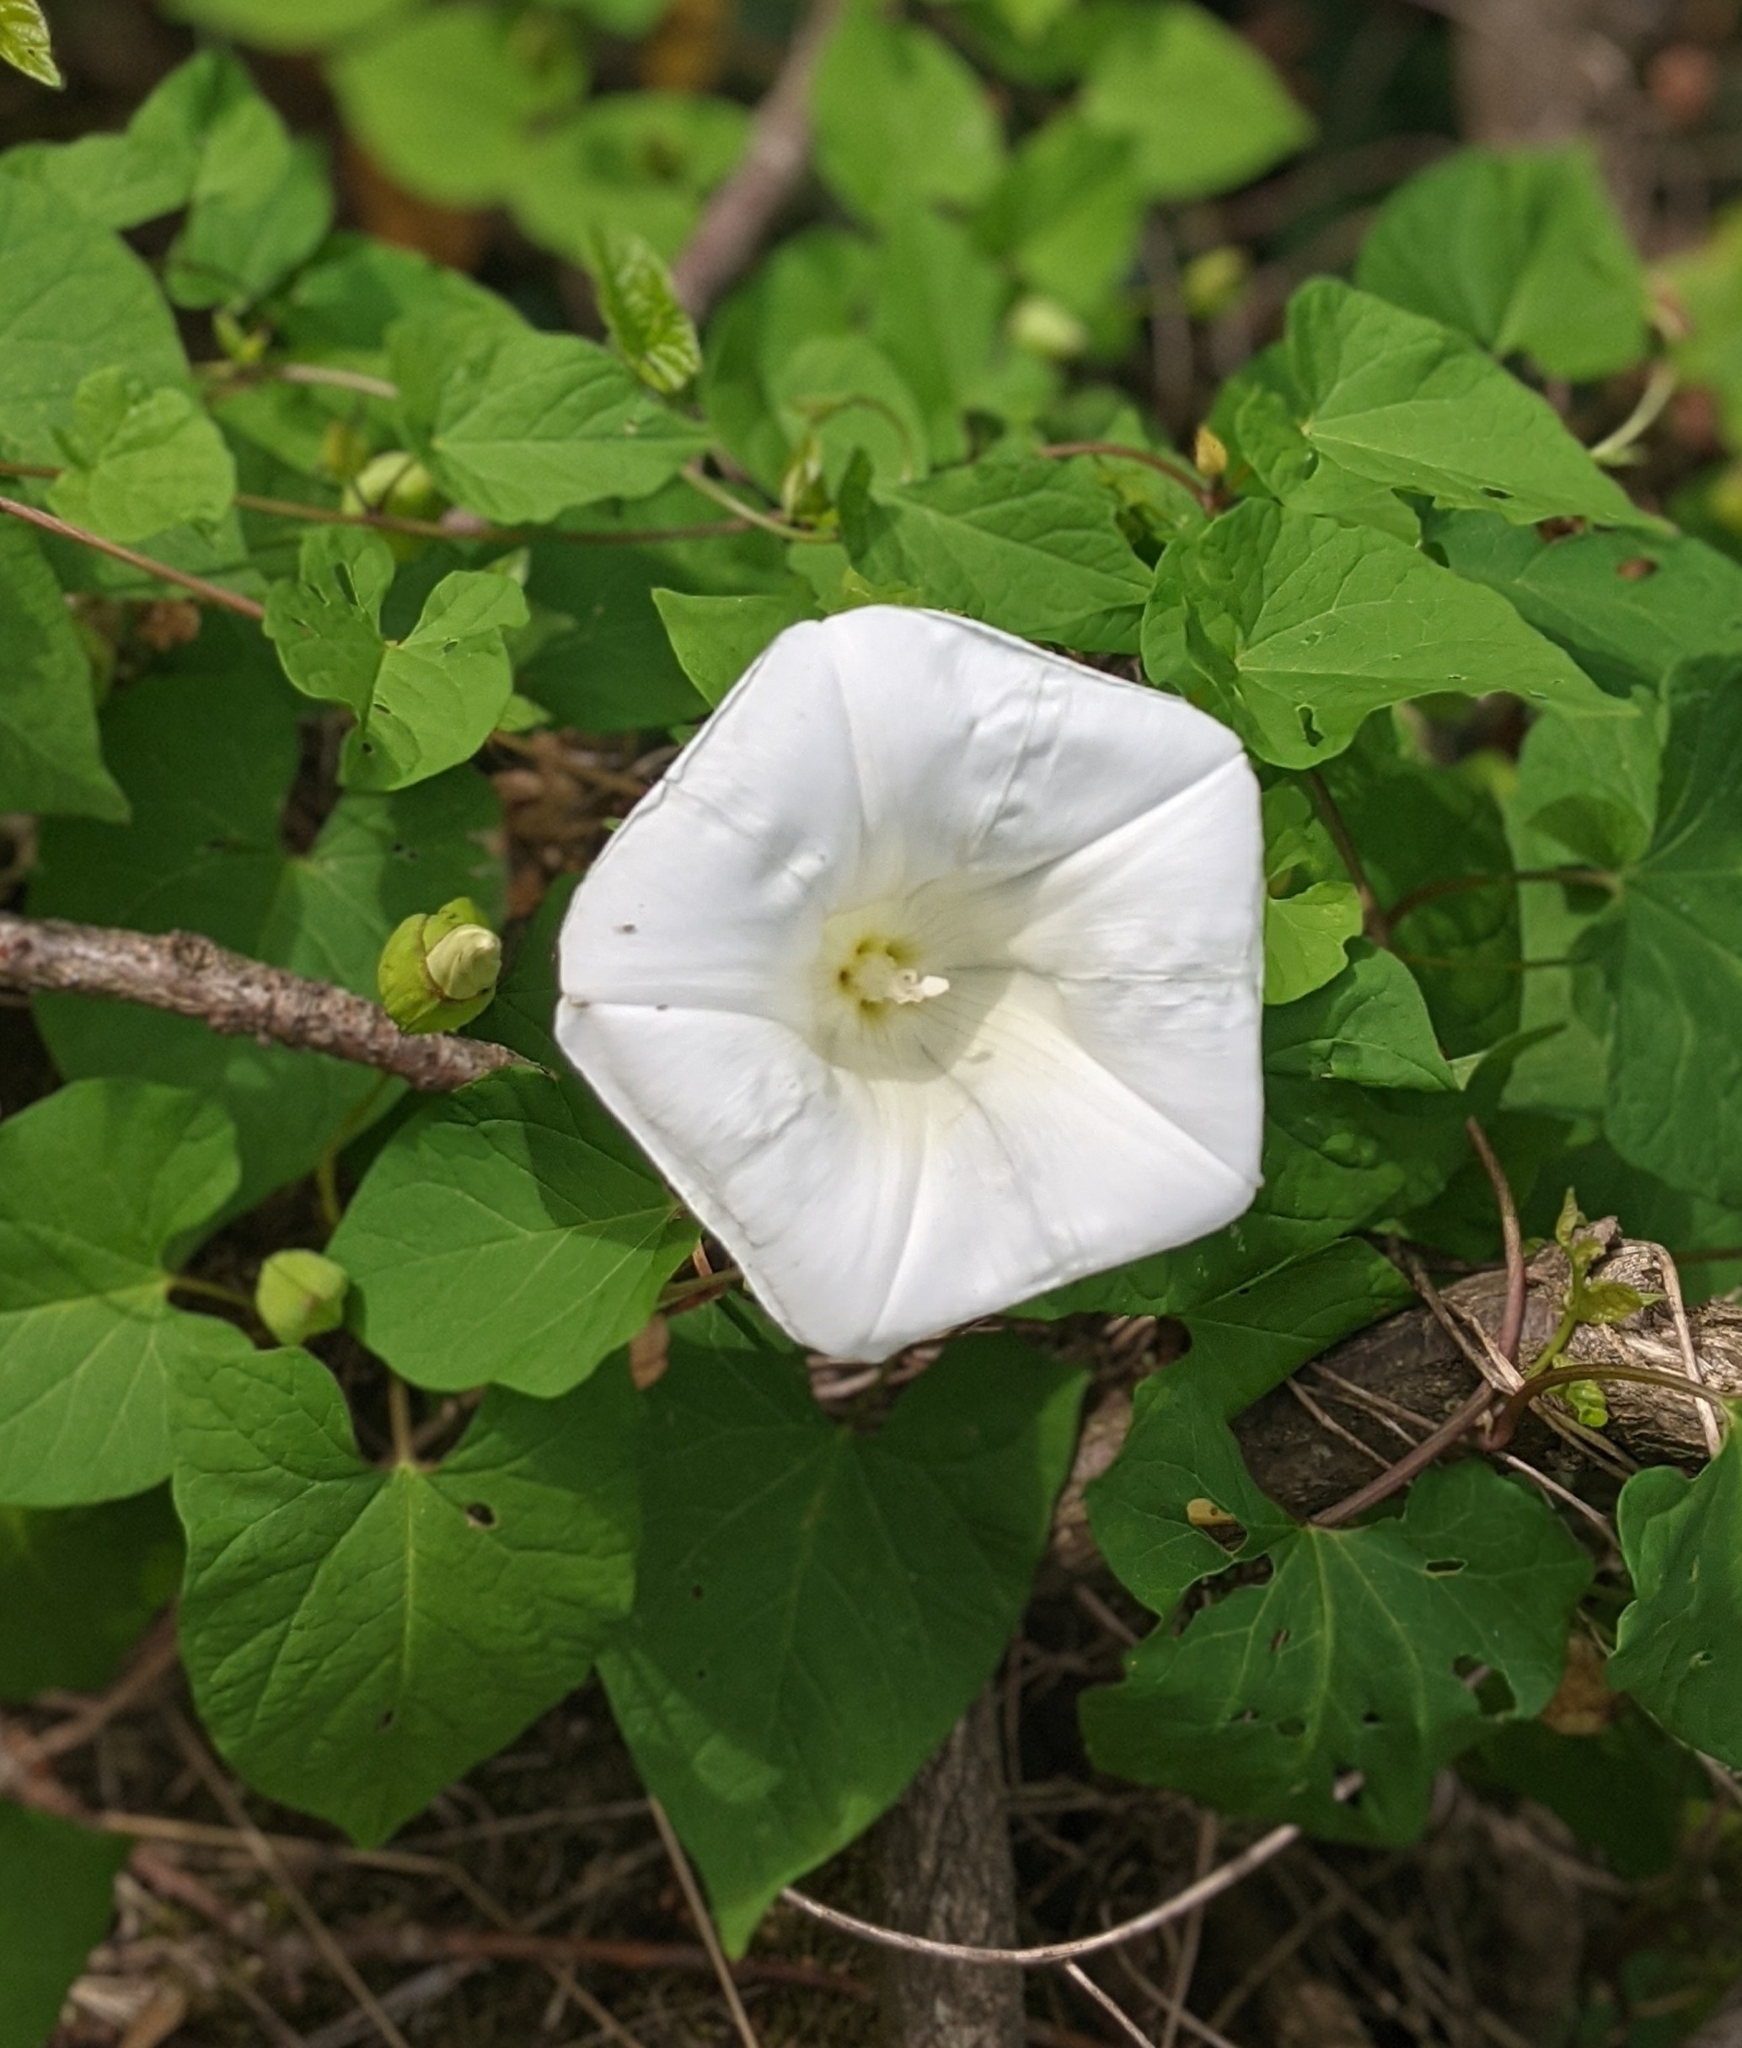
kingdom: Plantae
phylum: Tracheophyta
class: Magnoliopsida
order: Solanales
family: Convolvulaceae
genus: Calystegia
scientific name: Calystegia silvatica
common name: Large bindweed
